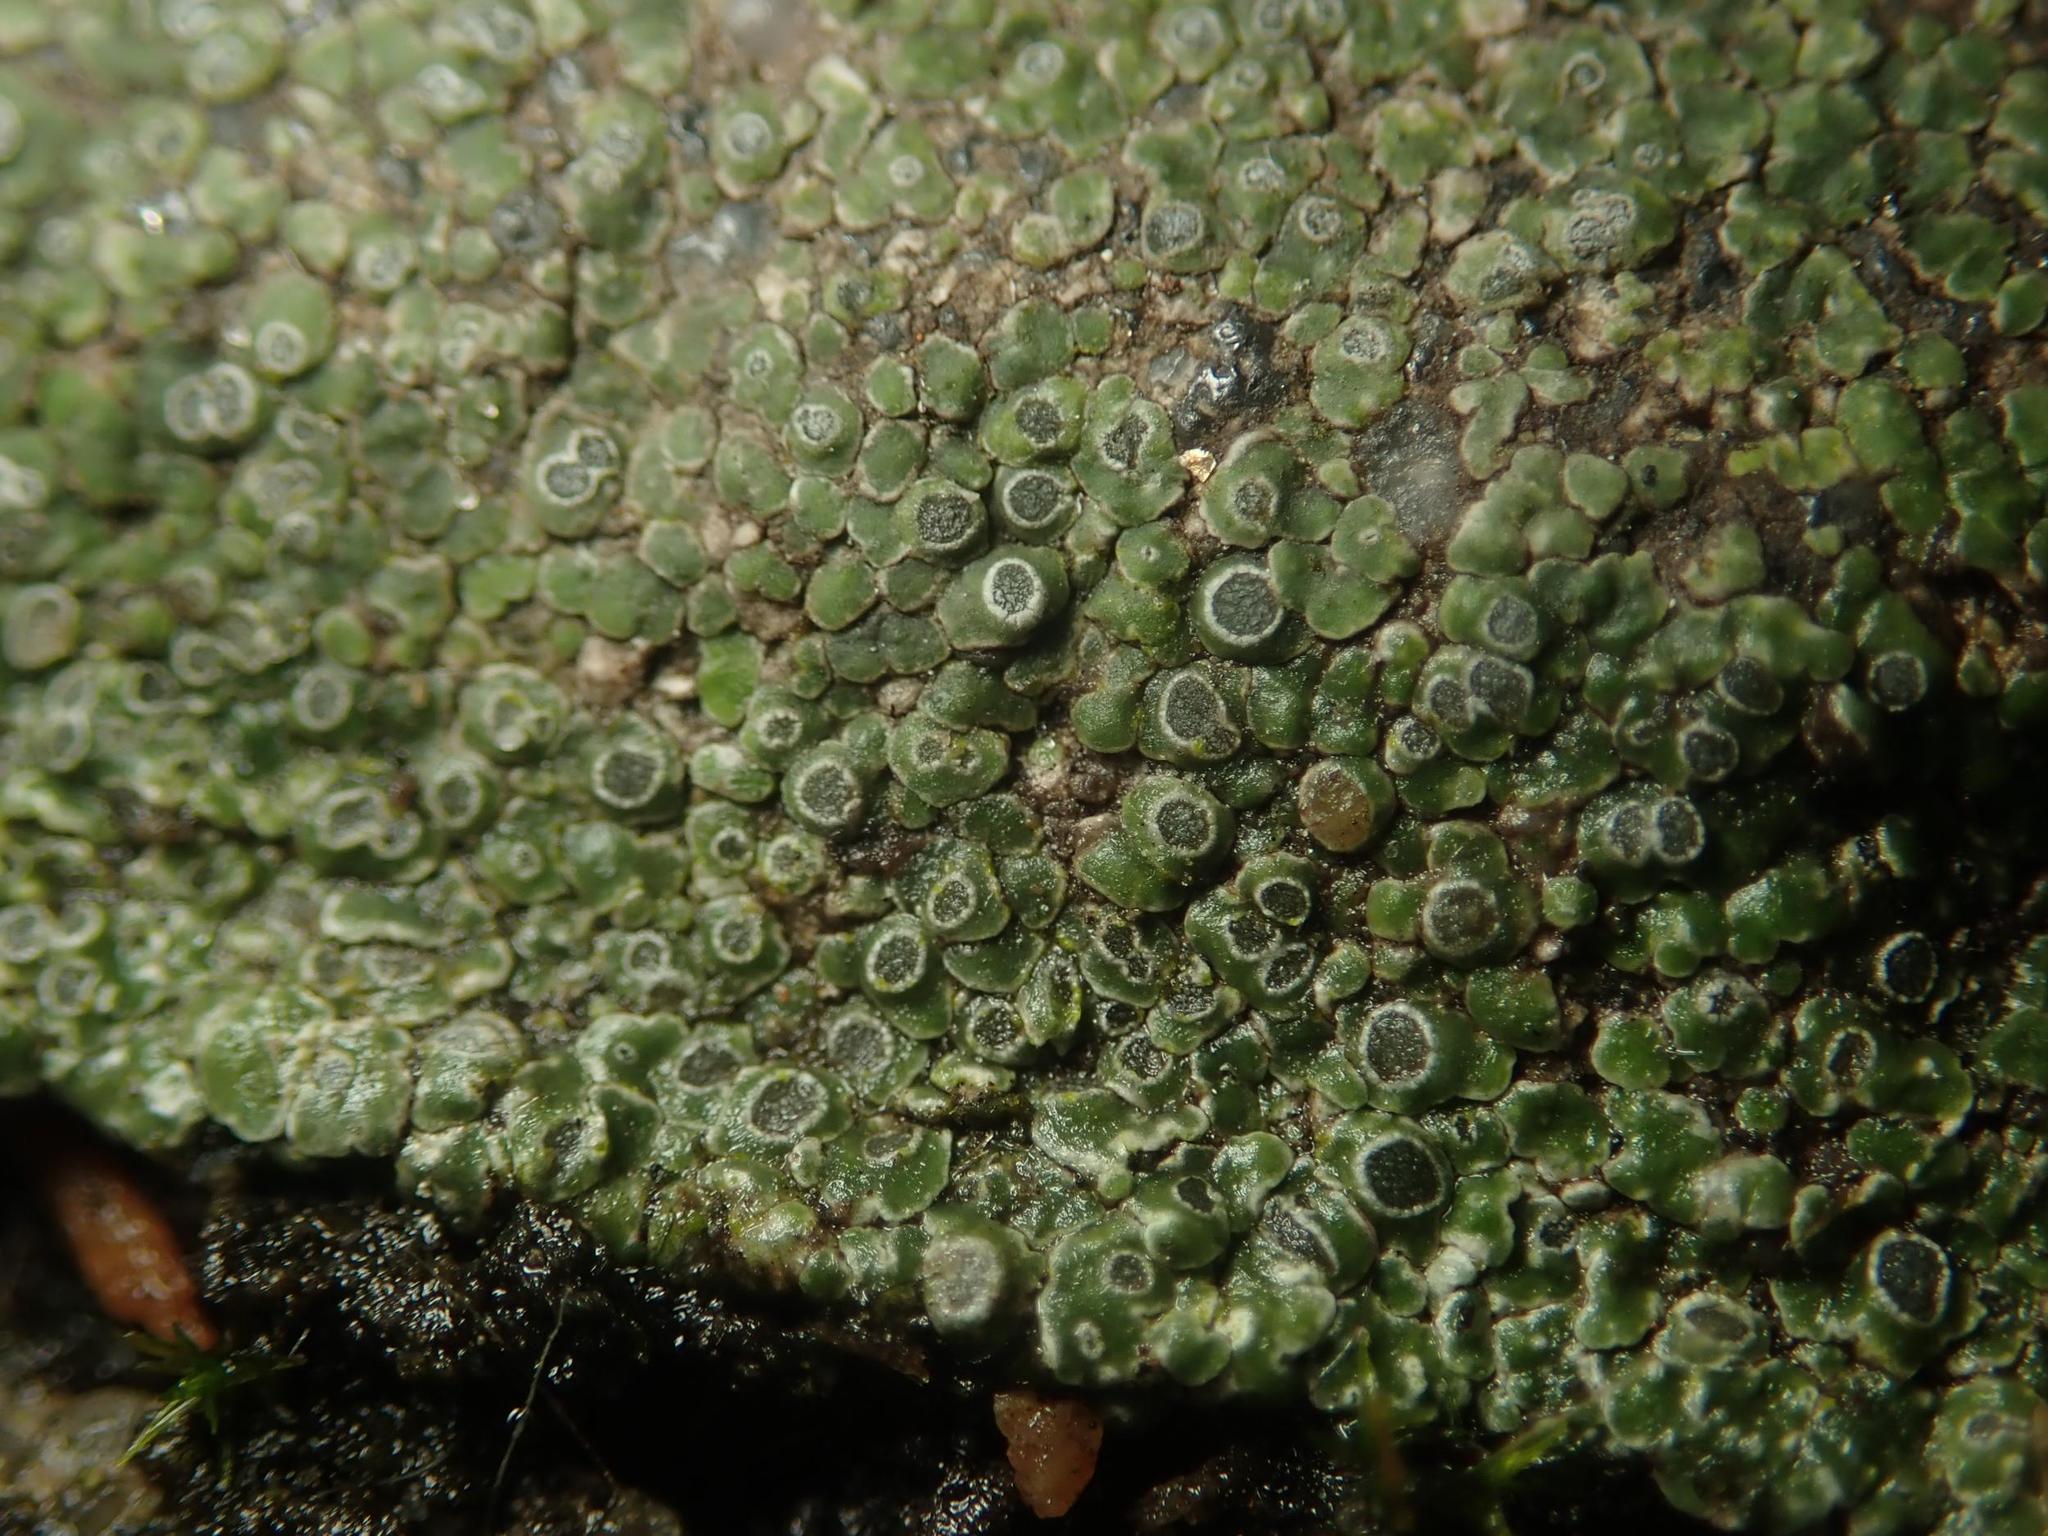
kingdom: Fungi
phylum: Ascomycota
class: Lecanoromycetes
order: Pertusariales
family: Megasporaceae
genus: Circinaria
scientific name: Circinaria contorta
